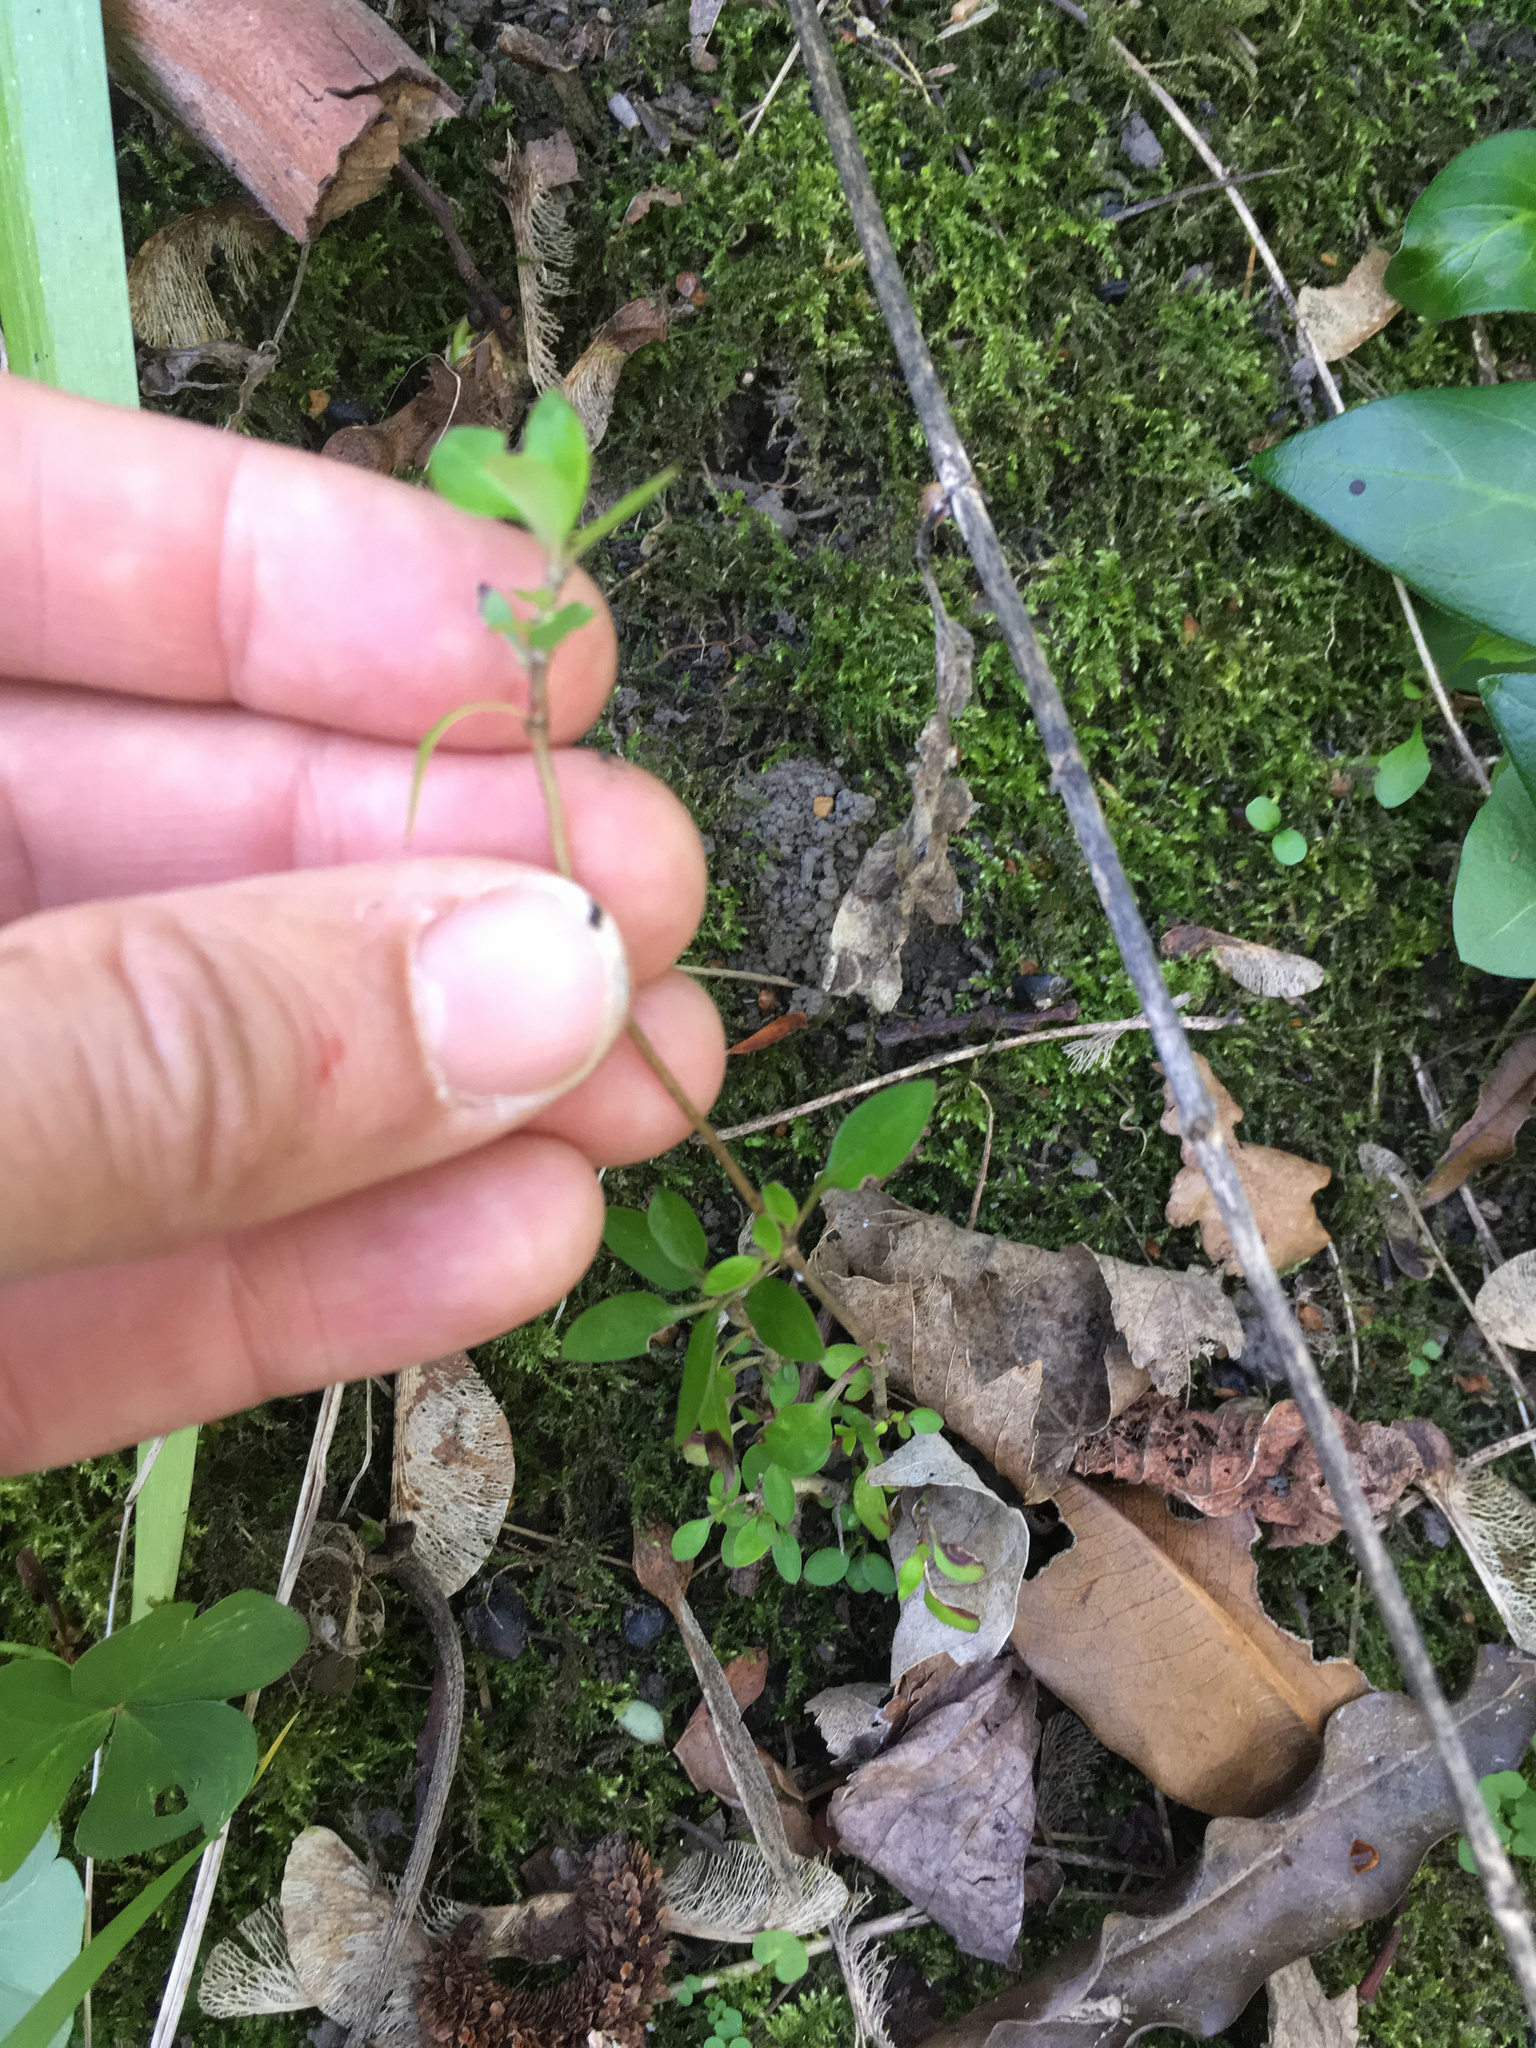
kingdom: Plantae
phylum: Tracheophyta
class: Magnoliopsida
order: Gentianales
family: Rubiaceae
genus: Coprosma
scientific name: Coprosma cunninghamii
